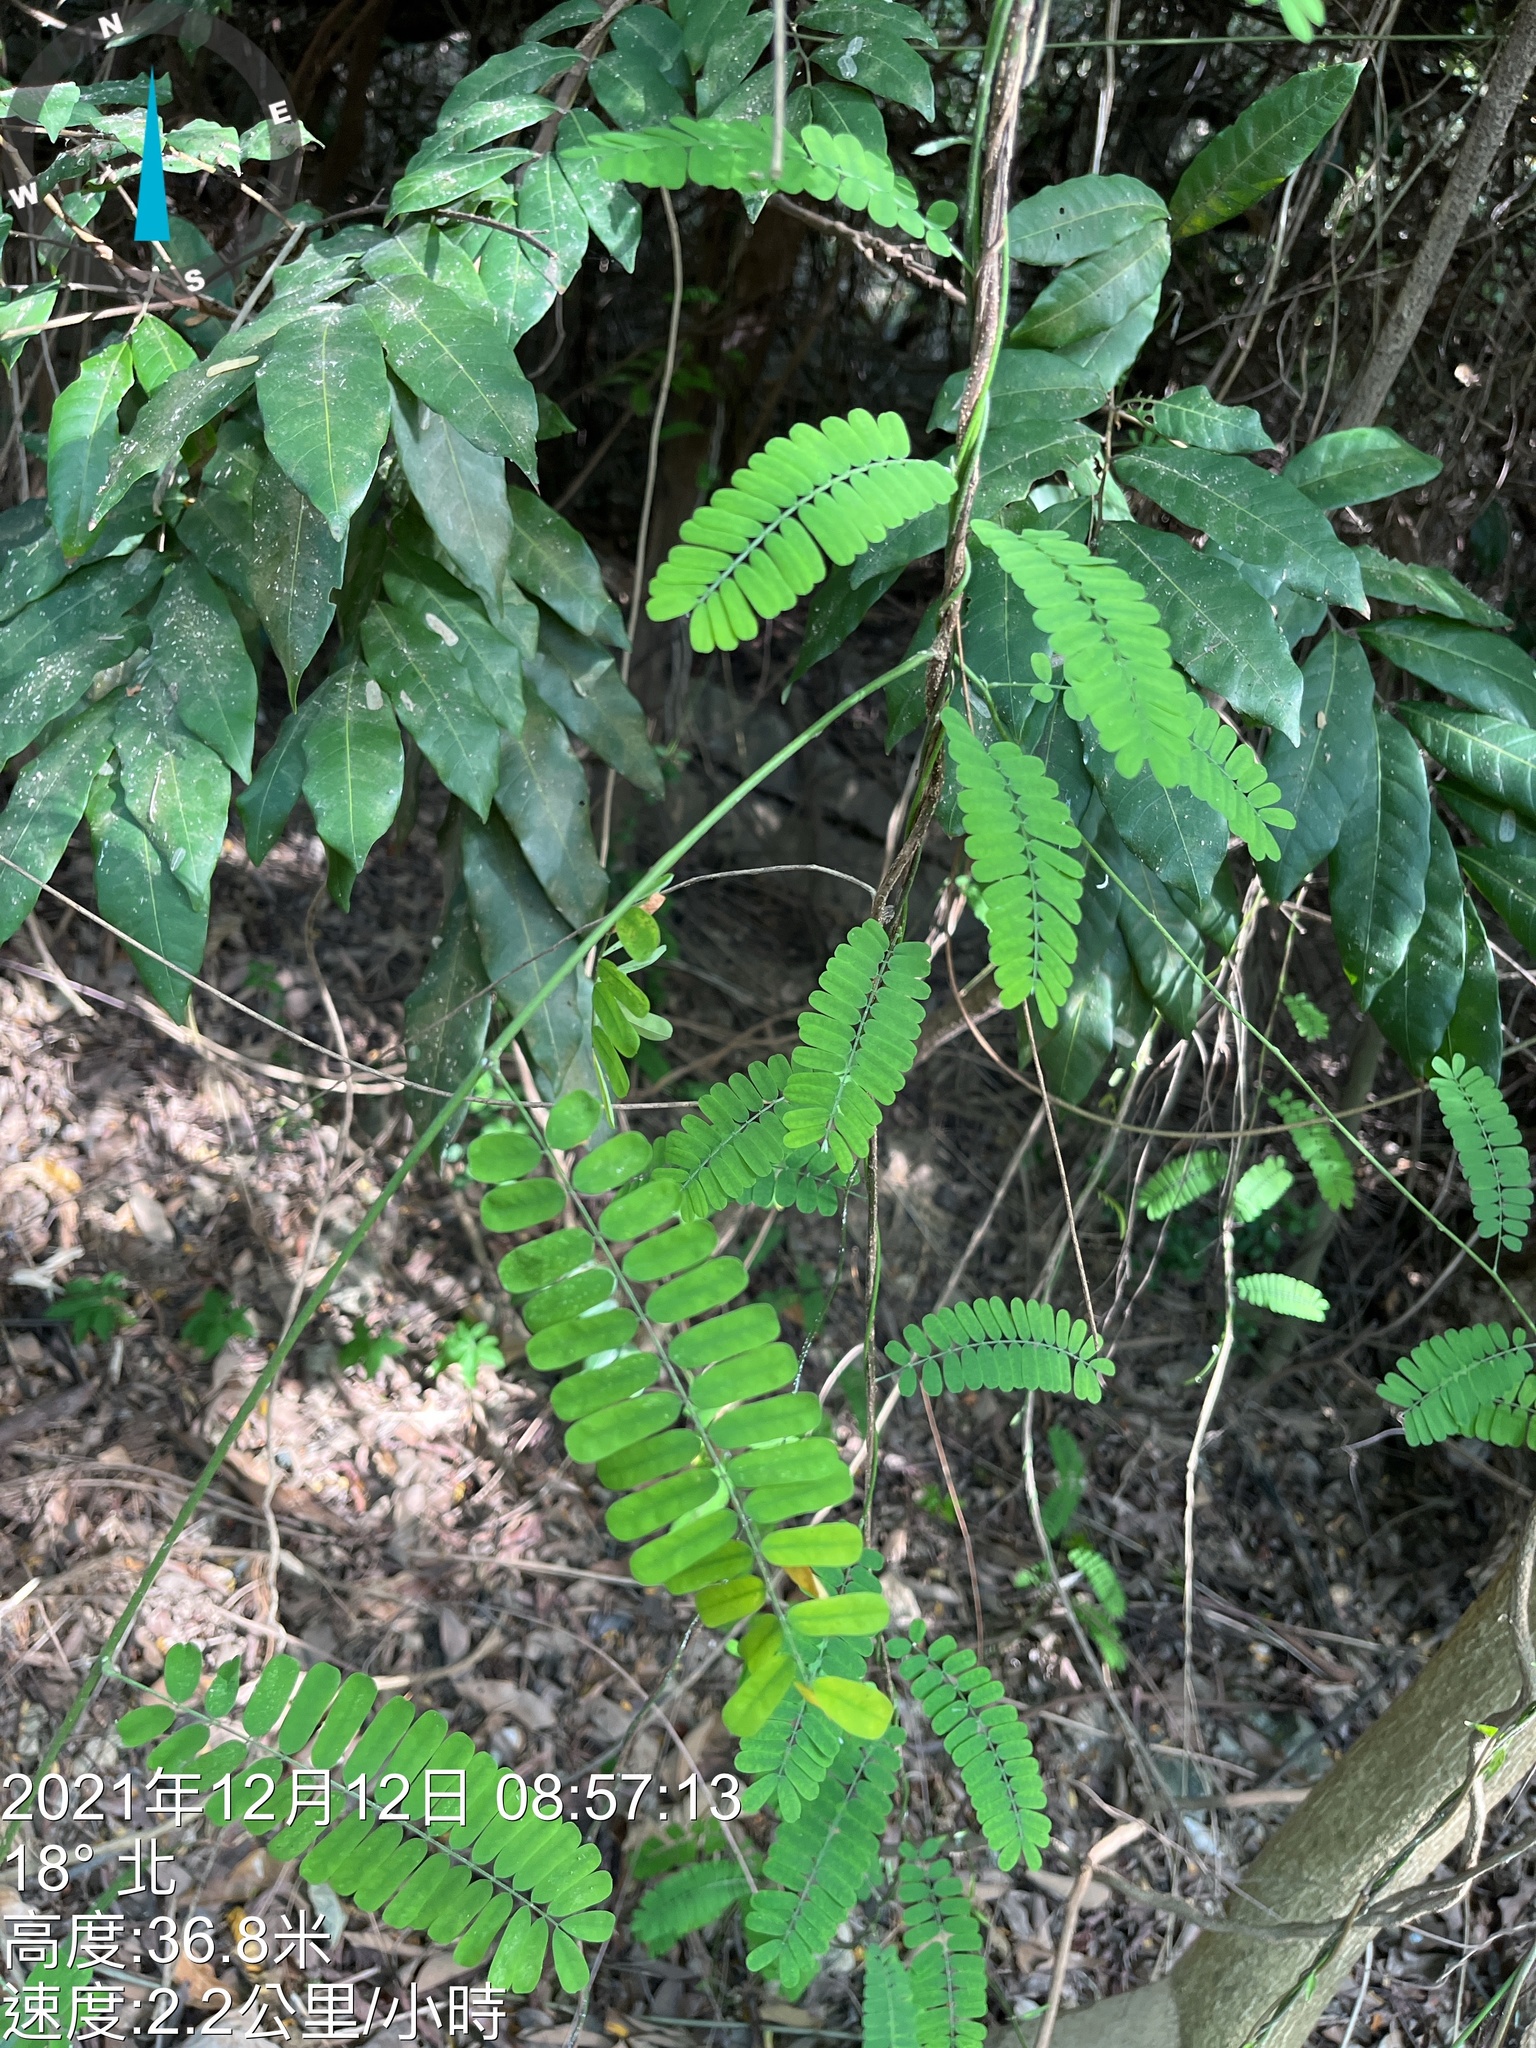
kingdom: Plantae
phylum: Tracheophyta
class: Magnoliopsida
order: Fabales
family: Fabaceae
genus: Abrus
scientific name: Abrus precatorius
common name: Rosarypea
